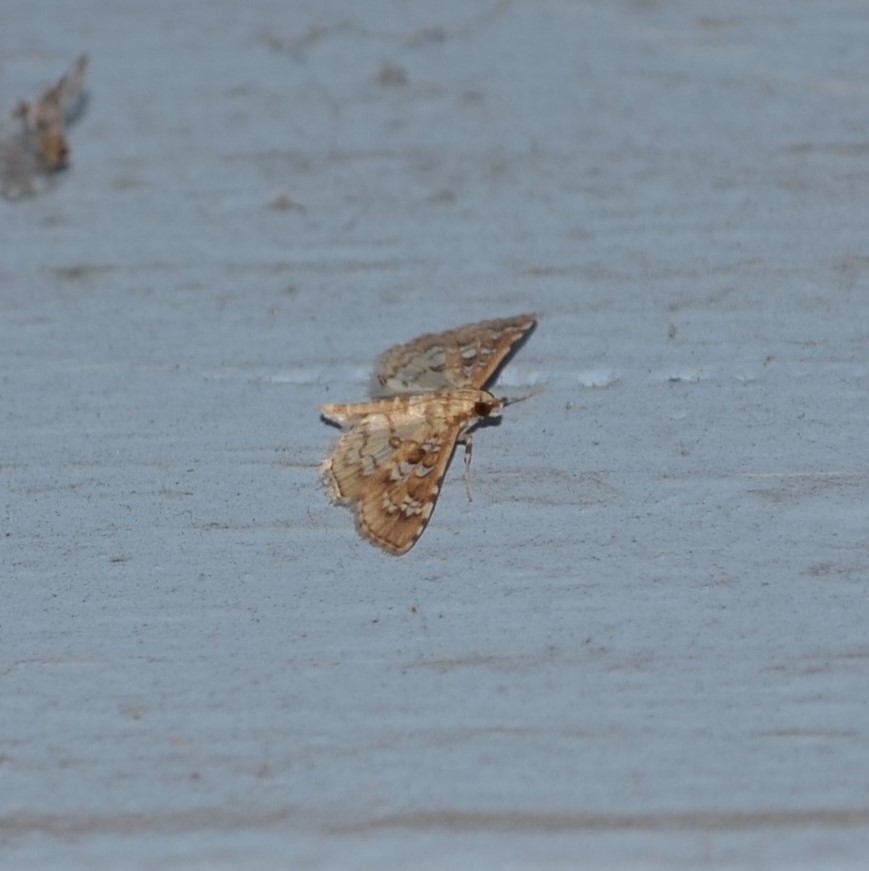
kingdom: Animalia
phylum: Arthropoda
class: Insecta
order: Lepidoptera
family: Crambidae
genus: Samea
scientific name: Samea multiplicalis
